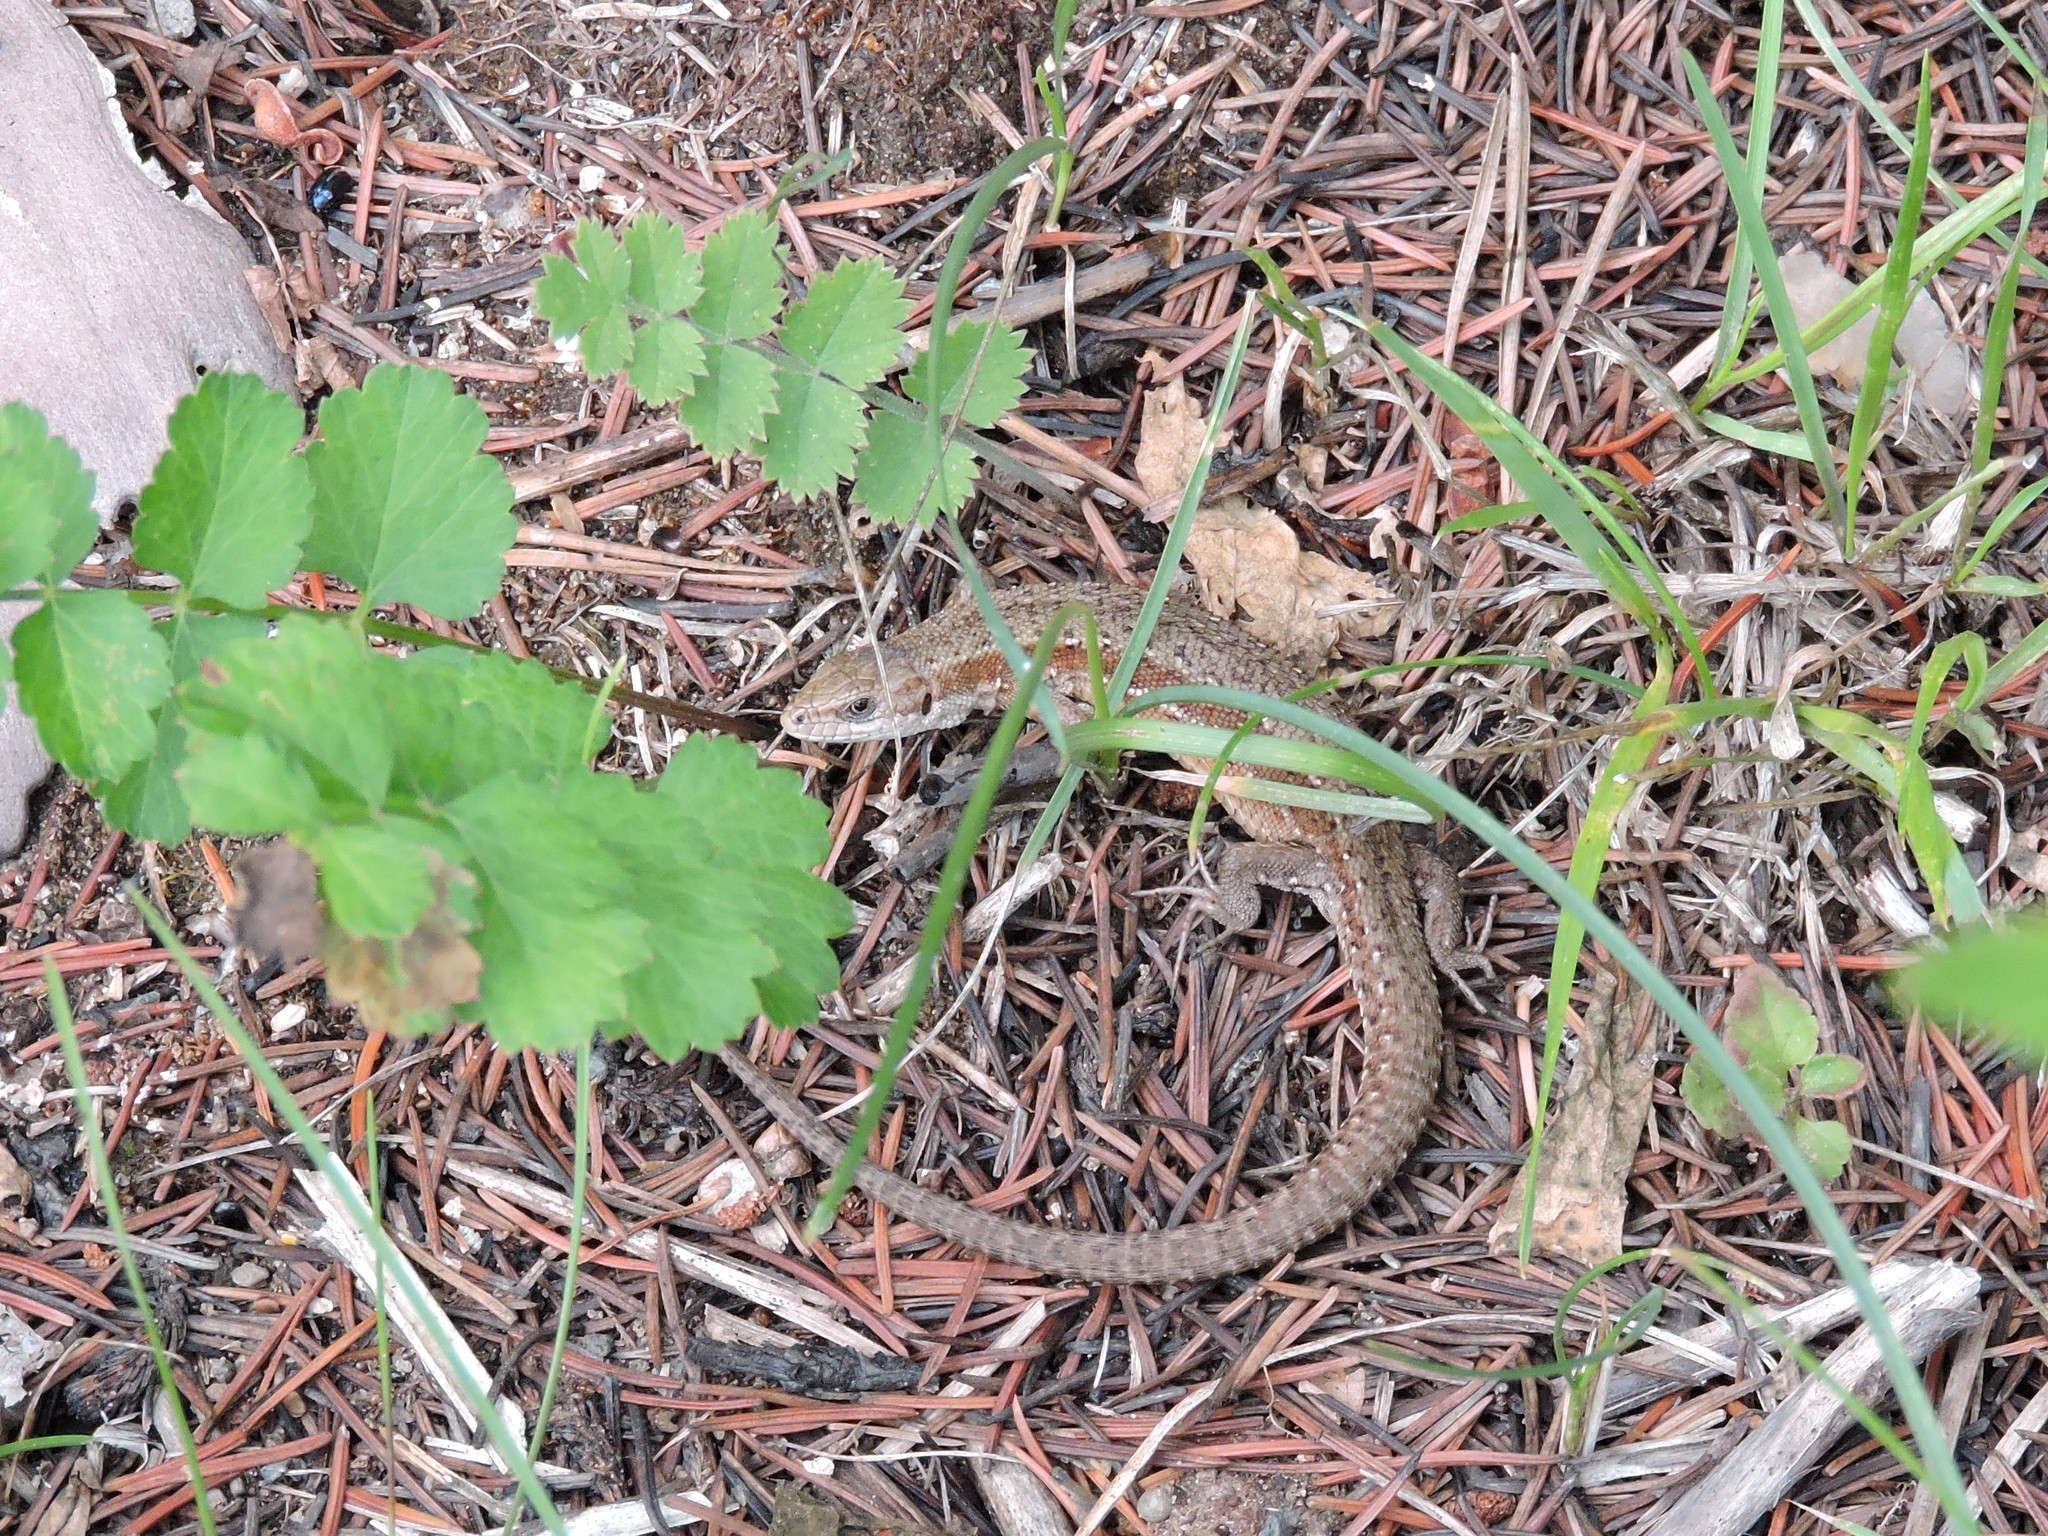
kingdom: Animalia
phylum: Chordata
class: Squamata
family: Lacertidae
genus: Zootoca
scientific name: Zootoca vivipara
